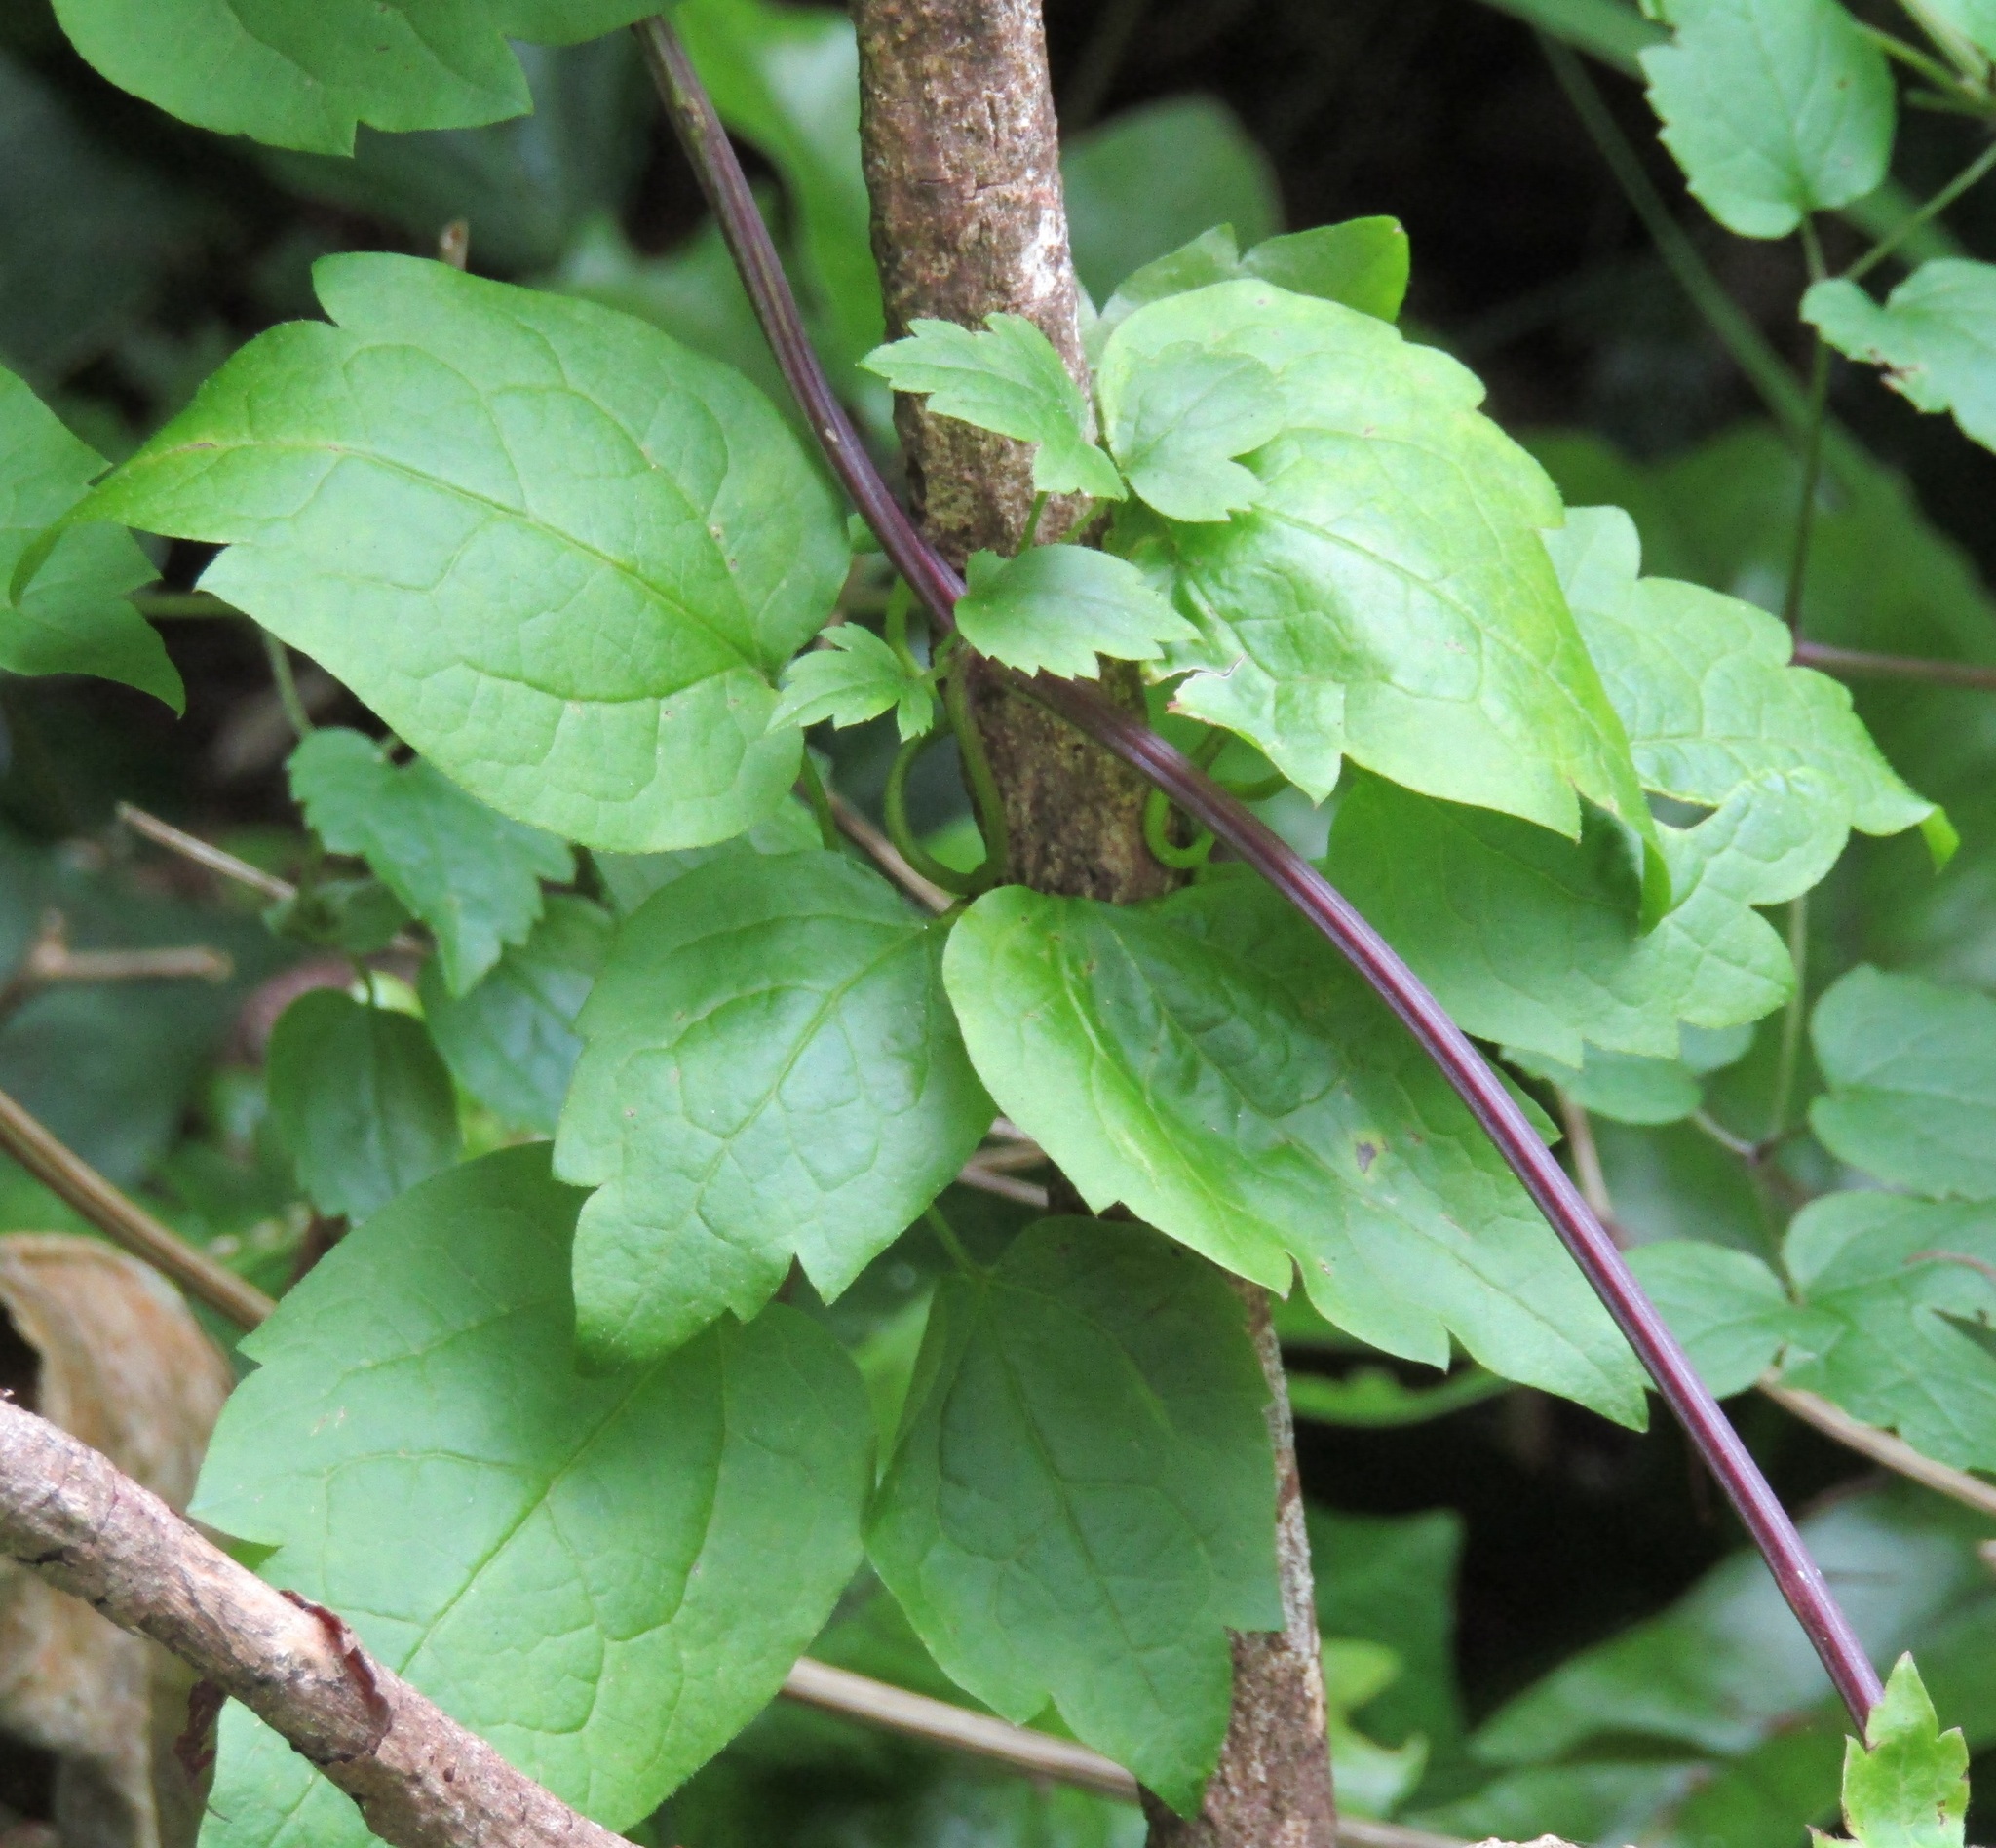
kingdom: Plantae
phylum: Tracheophyta
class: Magnoliopsida
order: Ranunculales
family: Ranunculaceae
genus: Clematis
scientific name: Clematis vitalba
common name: Evergreen clematis
